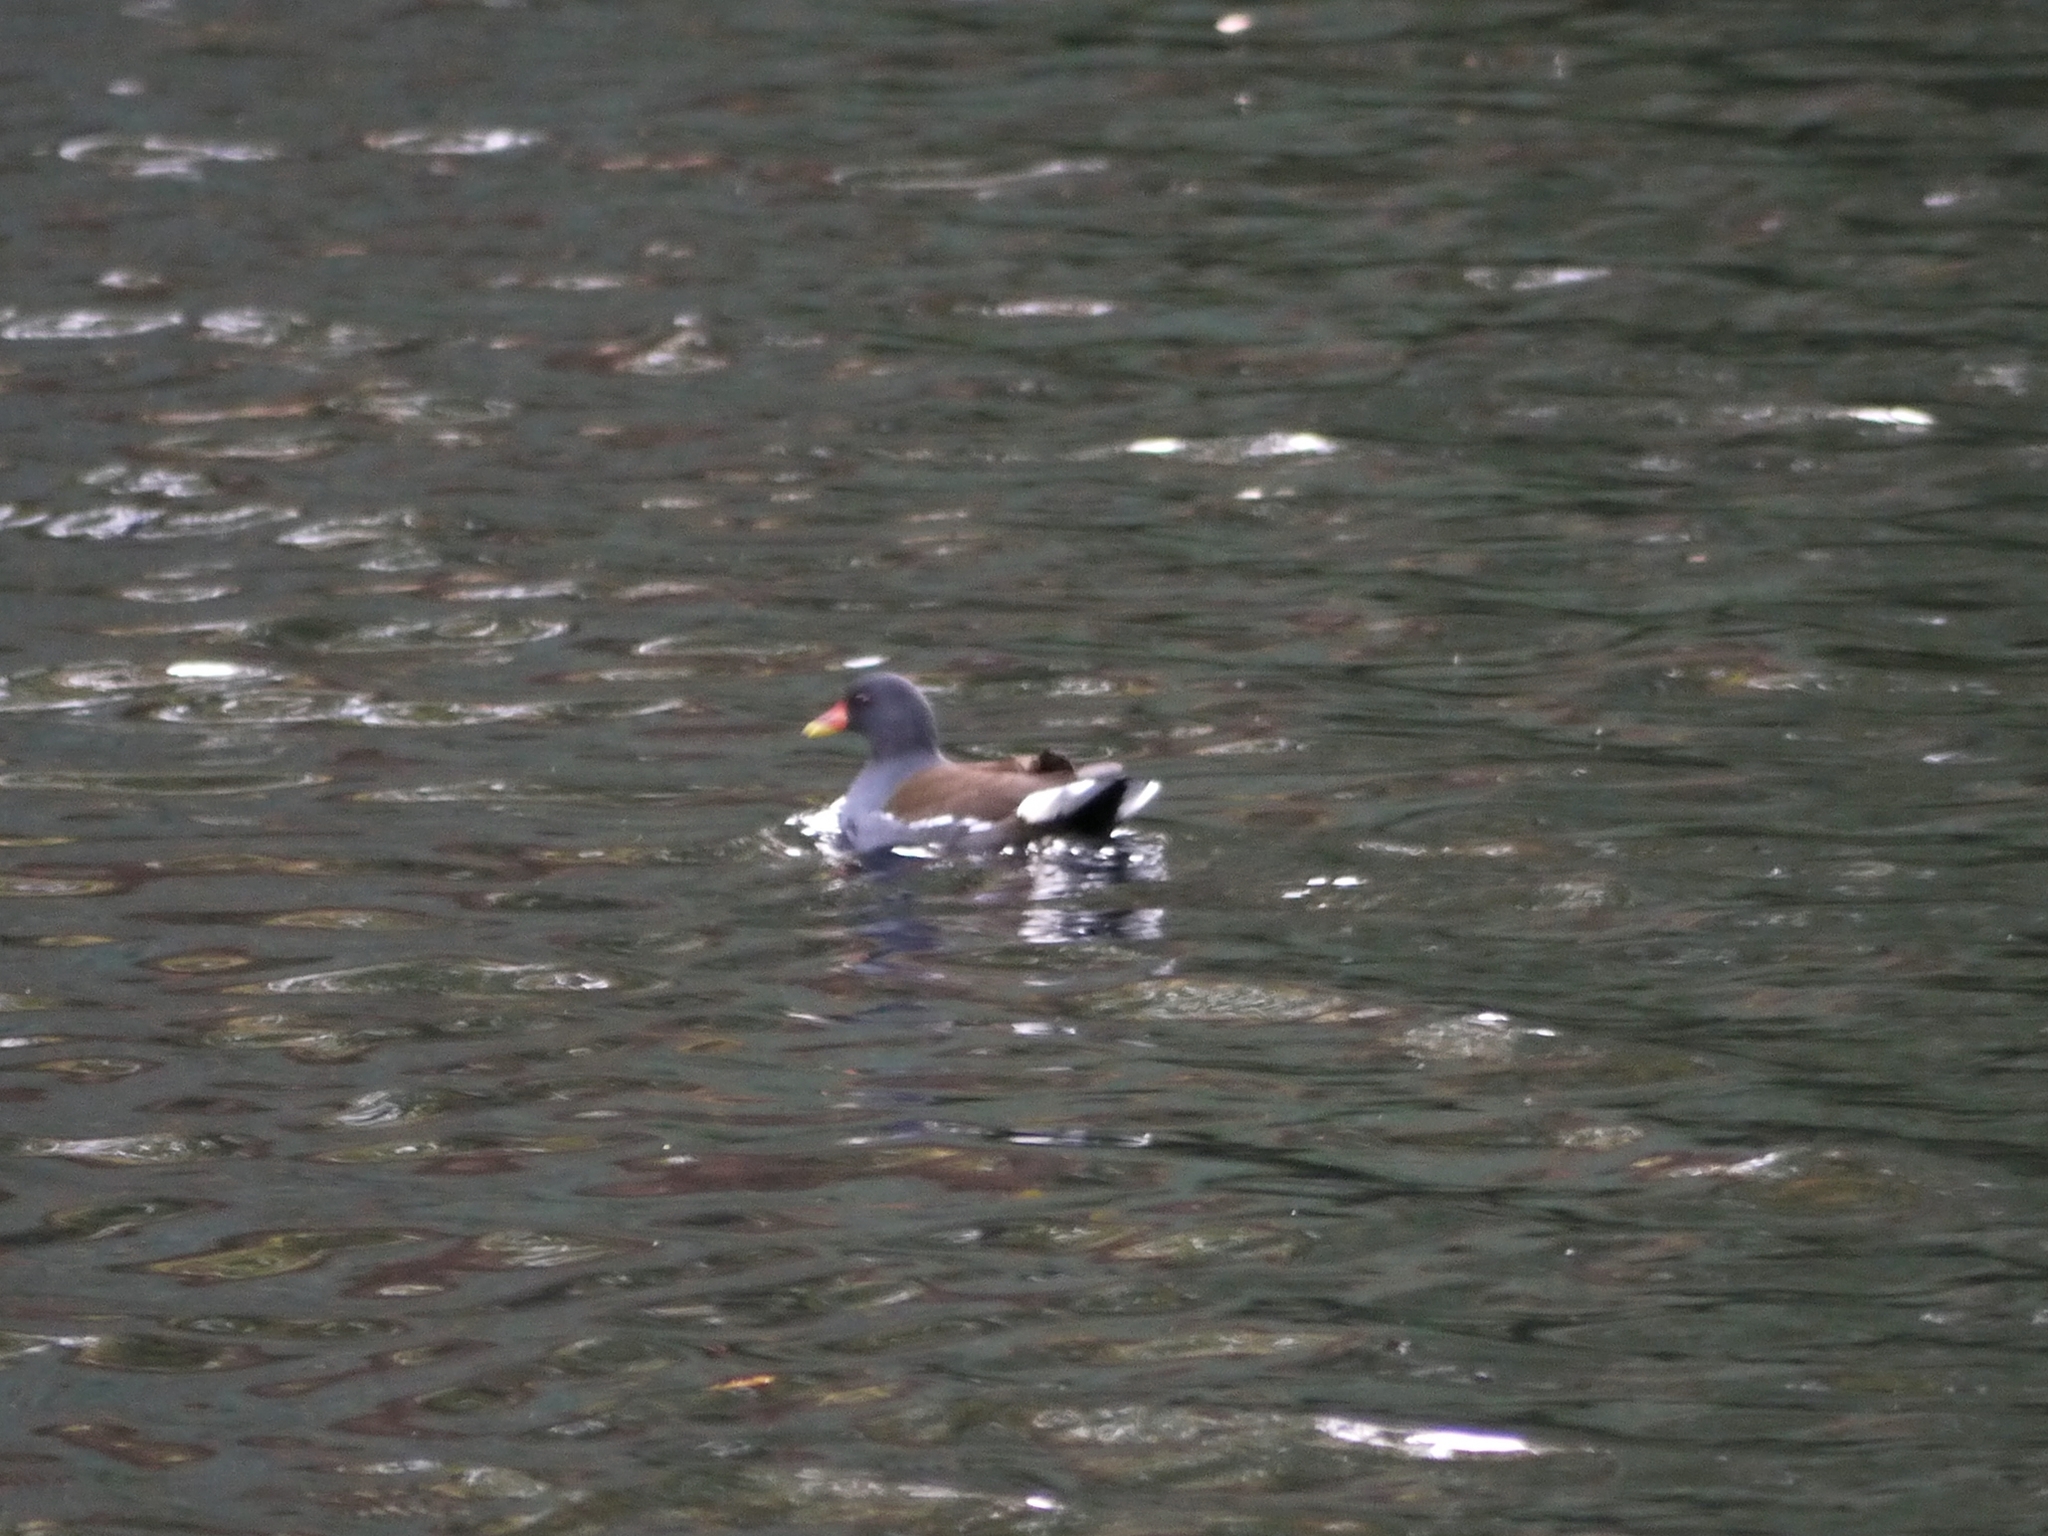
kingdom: Animalia
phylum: Chordata
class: Aves
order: Gruiformes
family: Rallidae
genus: Gallinula
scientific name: Gallinula chloropus
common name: Common moorhen
